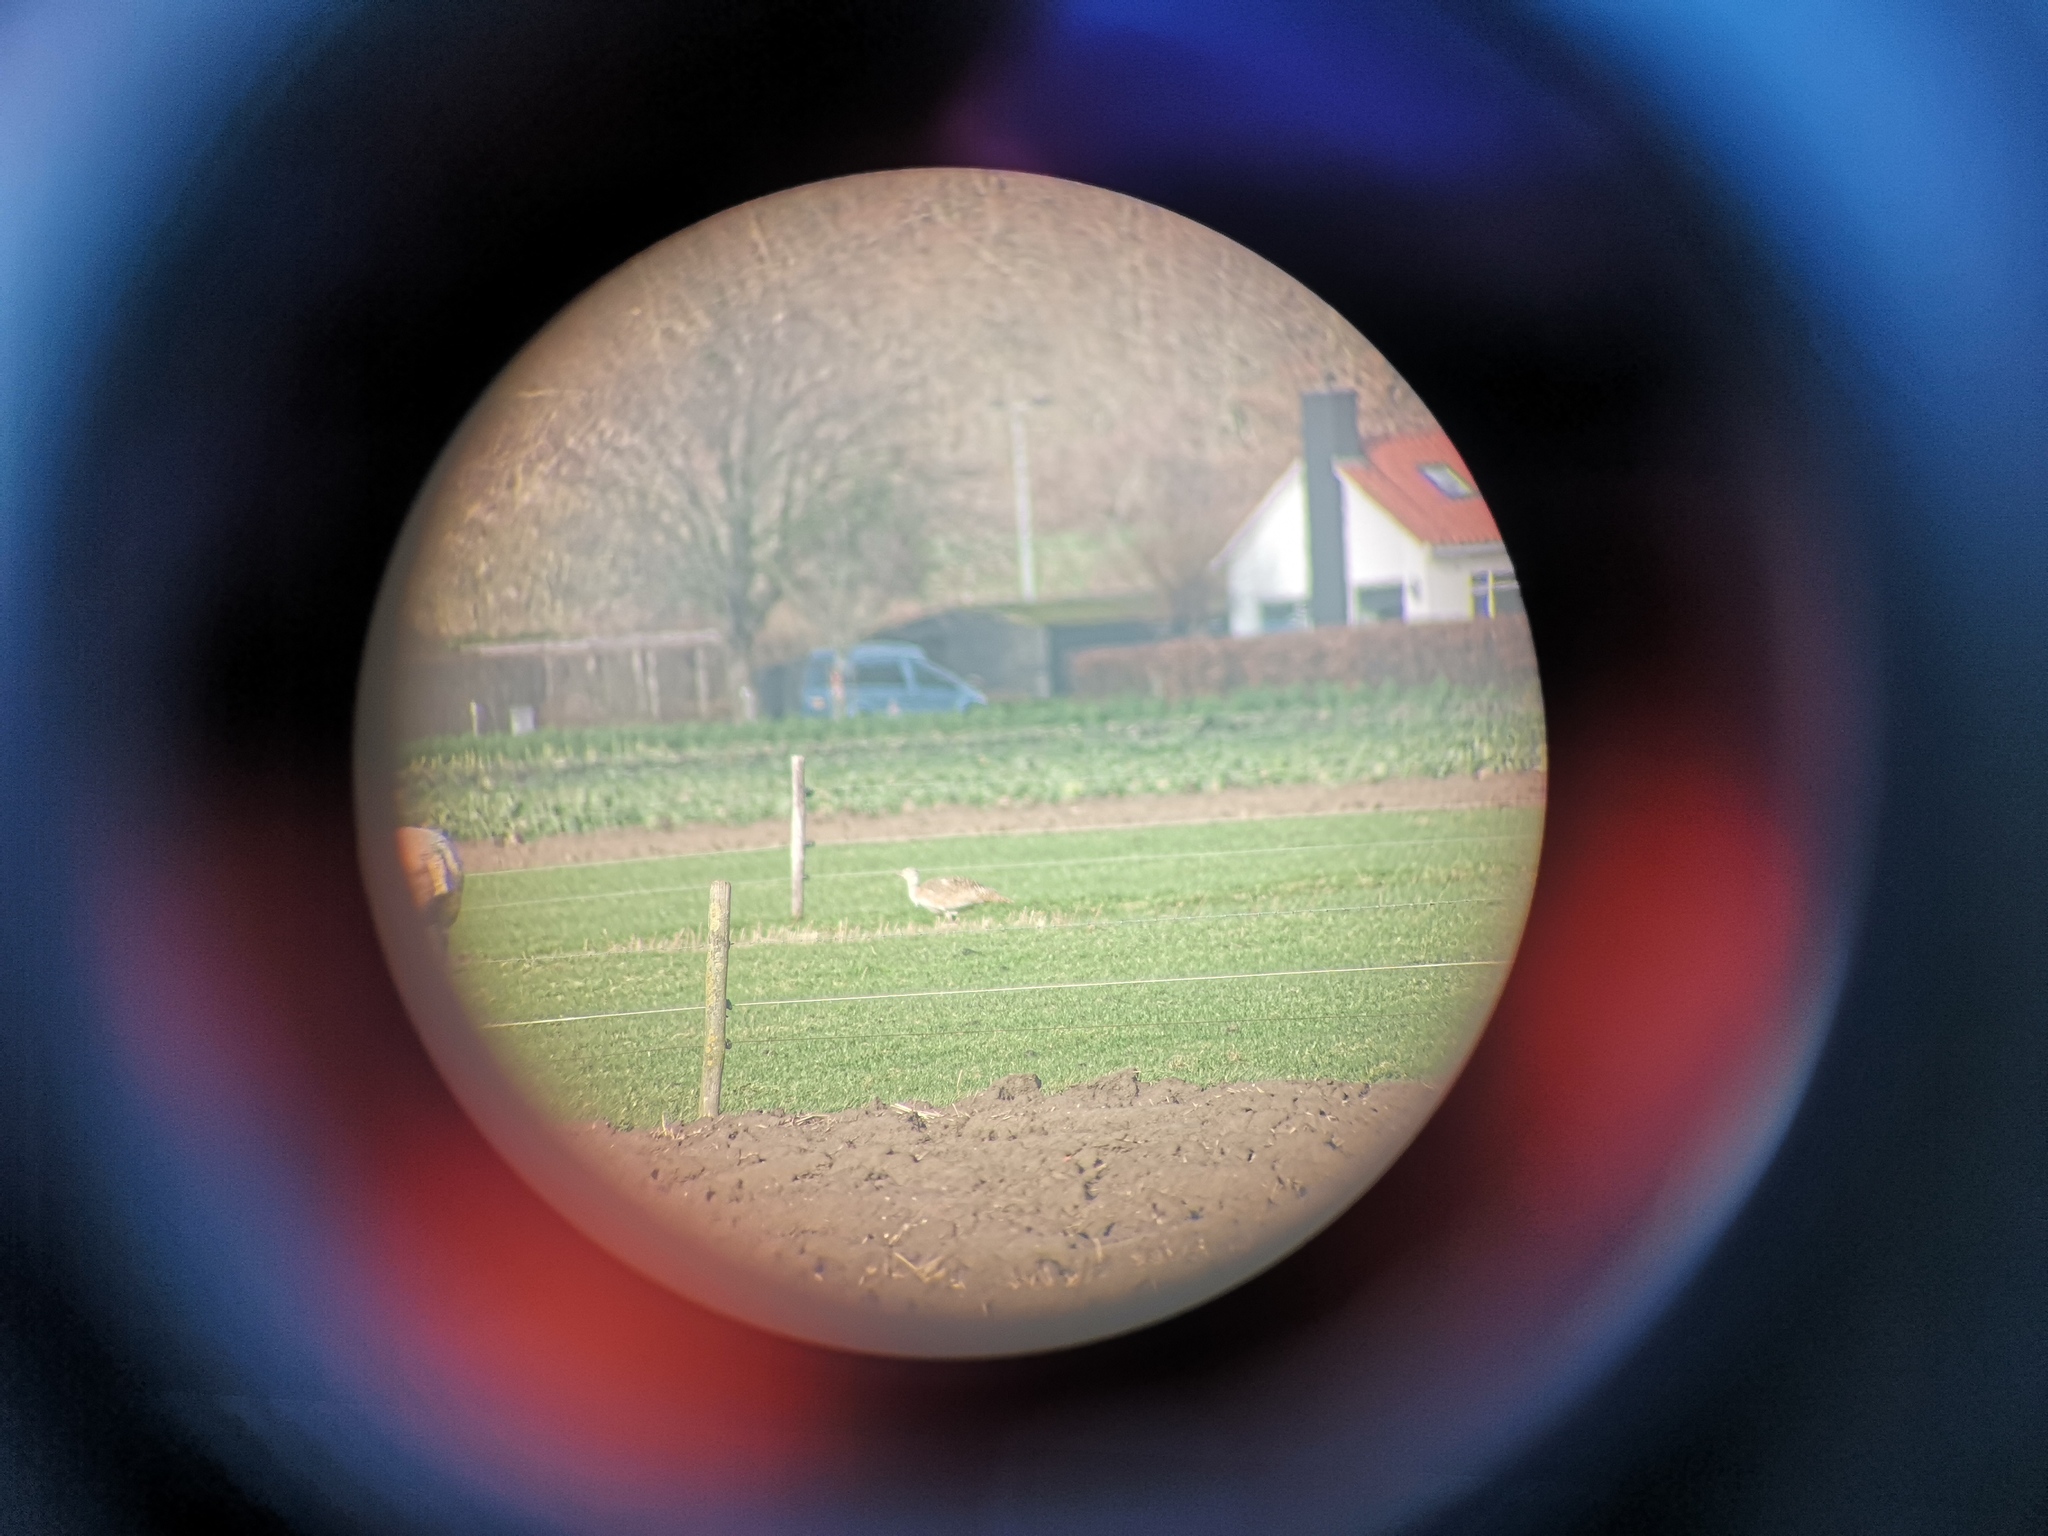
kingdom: Animalia
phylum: Chordata
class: Aves
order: Otidiformes
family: Otididae
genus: Otis
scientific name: Otis tarda
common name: Great bustard
